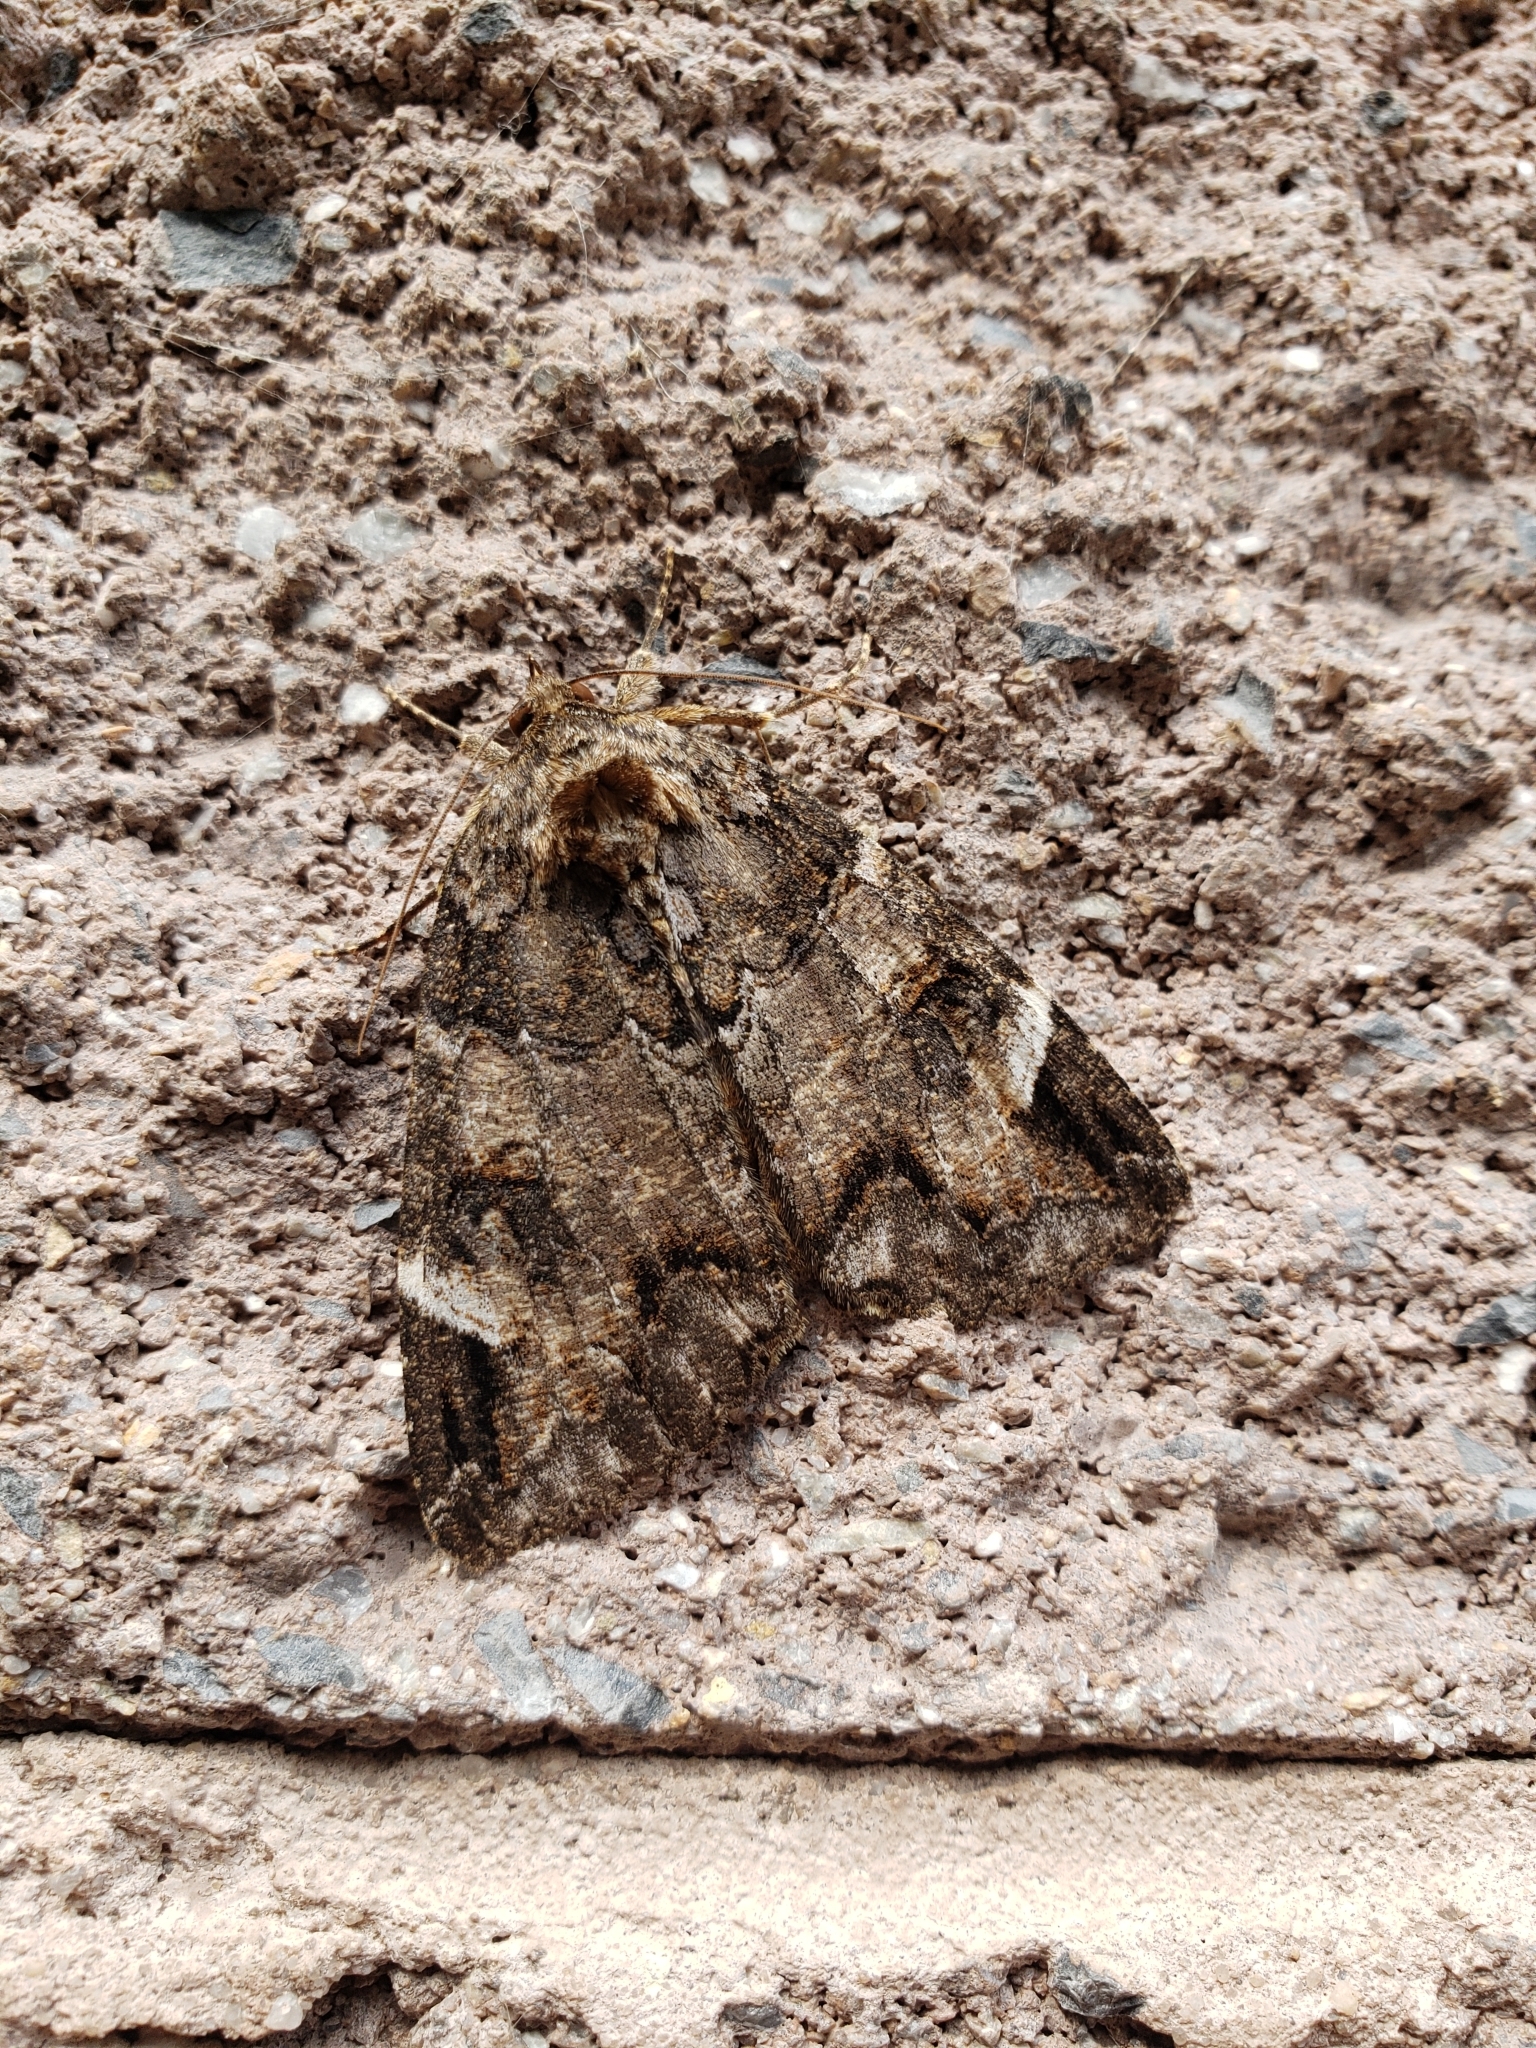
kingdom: Animalia
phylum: Arthropoda
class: Insecta
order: Lepidoptera
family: Erebidae
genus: Euparthenos
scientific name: Euparthenos nubilis
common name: Locust underwing
